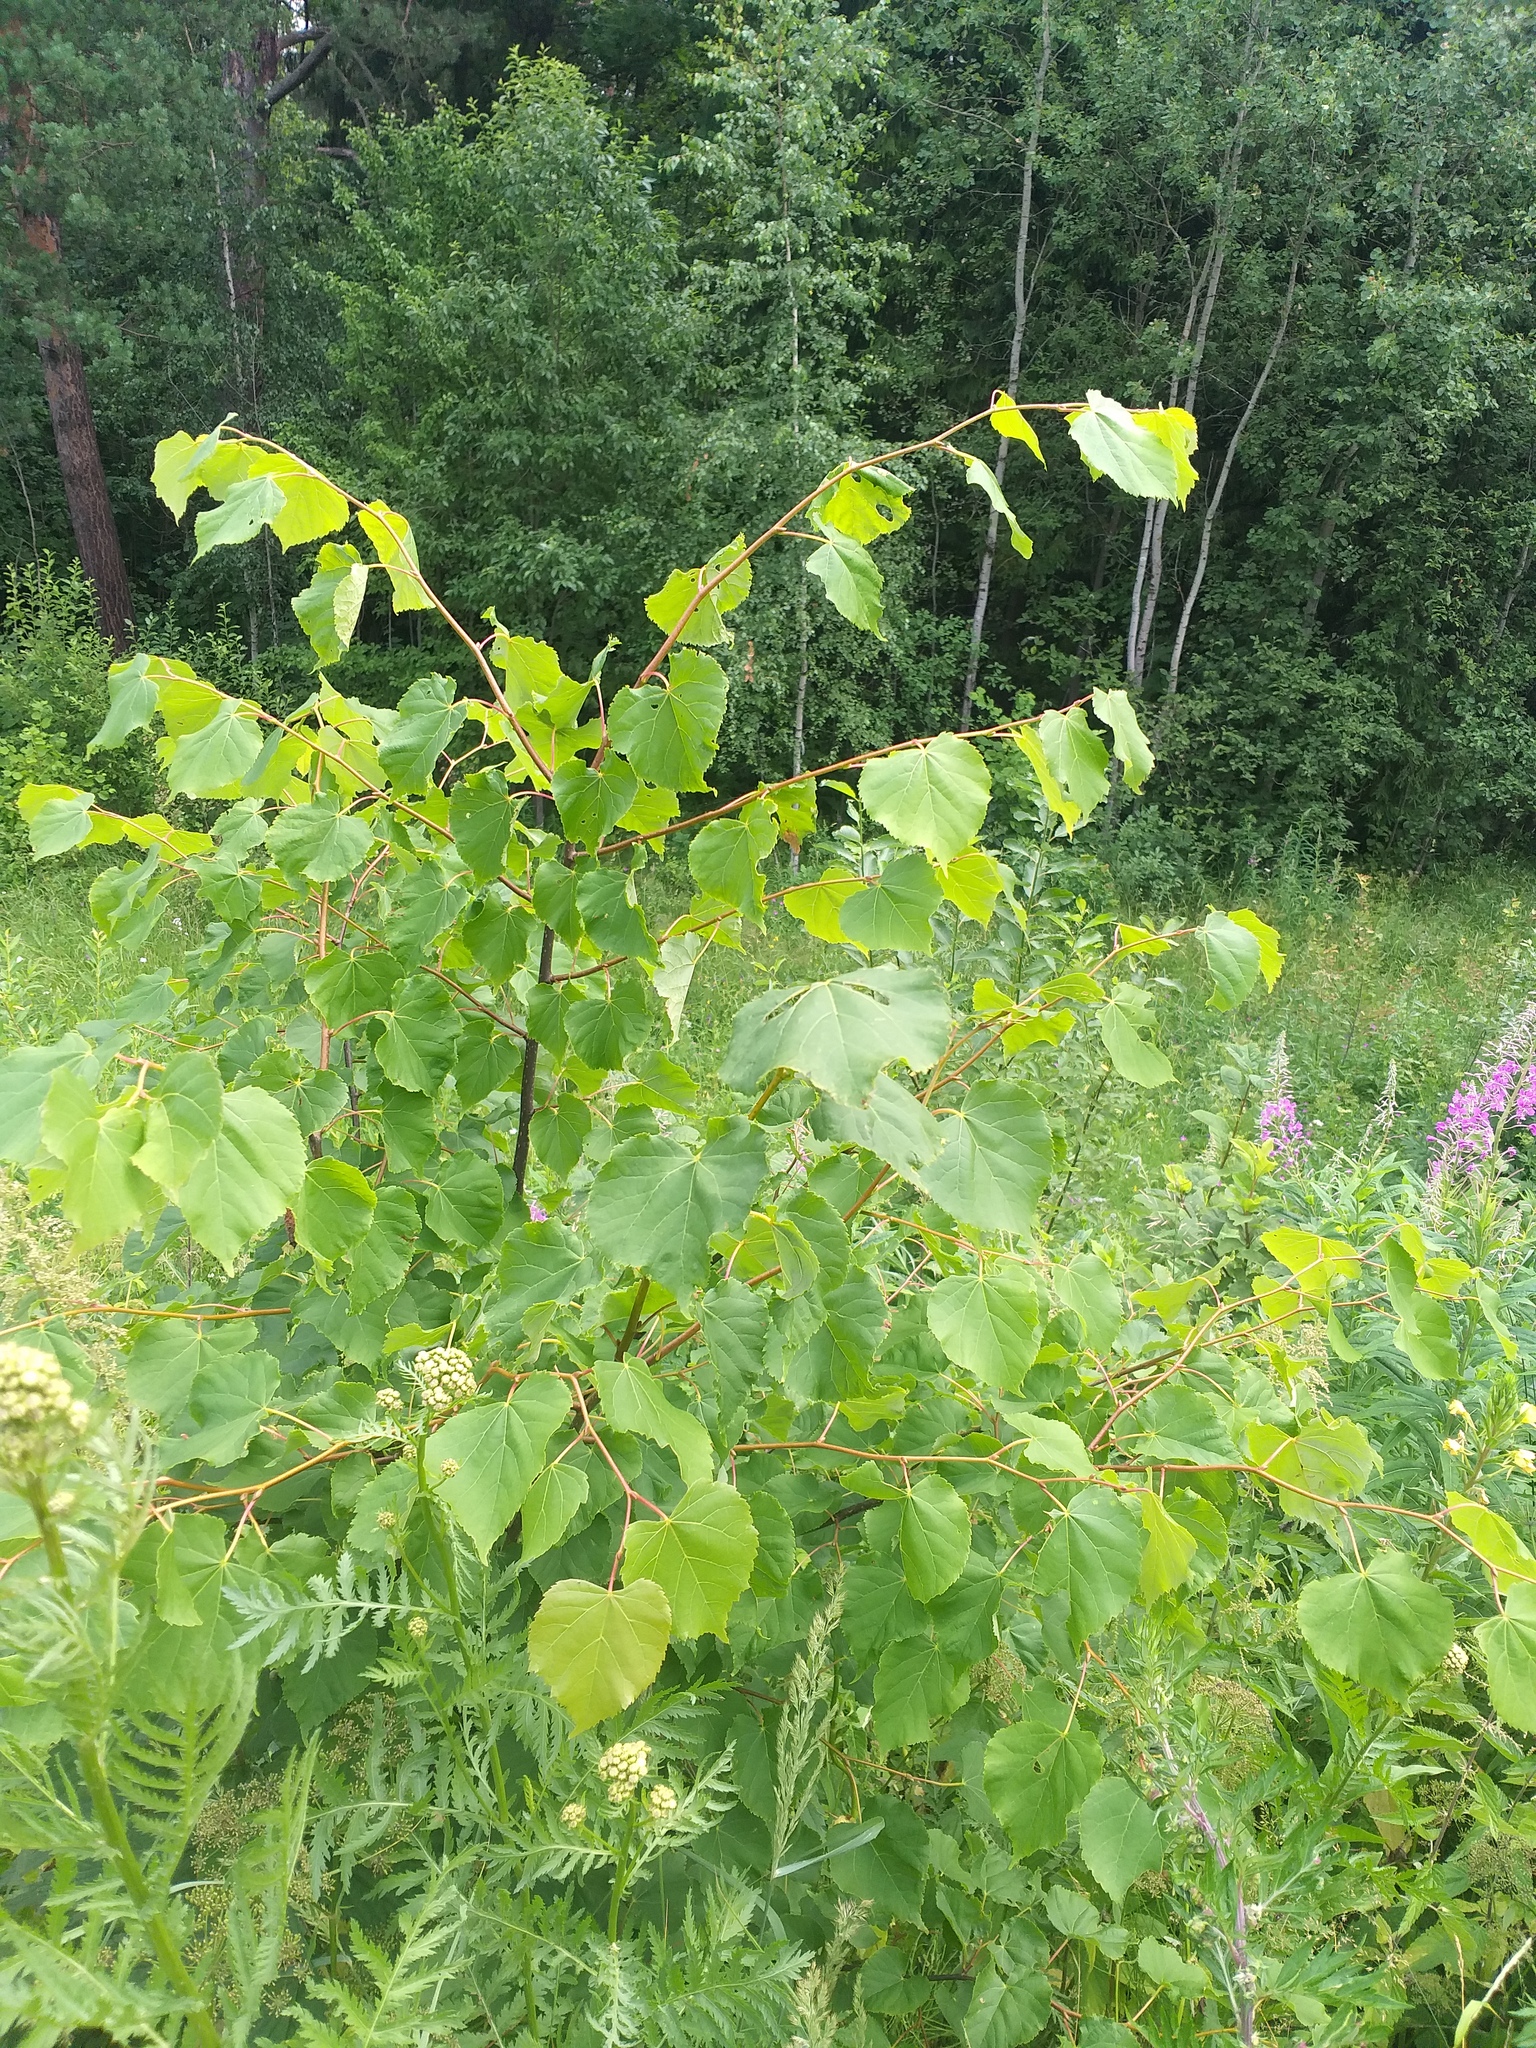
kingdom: Plantae
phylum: Tracheophyta
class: Magnoliopsida
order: Malvales
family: Malvaceae
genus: Tilia
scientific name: Tilia cordata
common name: Small-leaved lime
